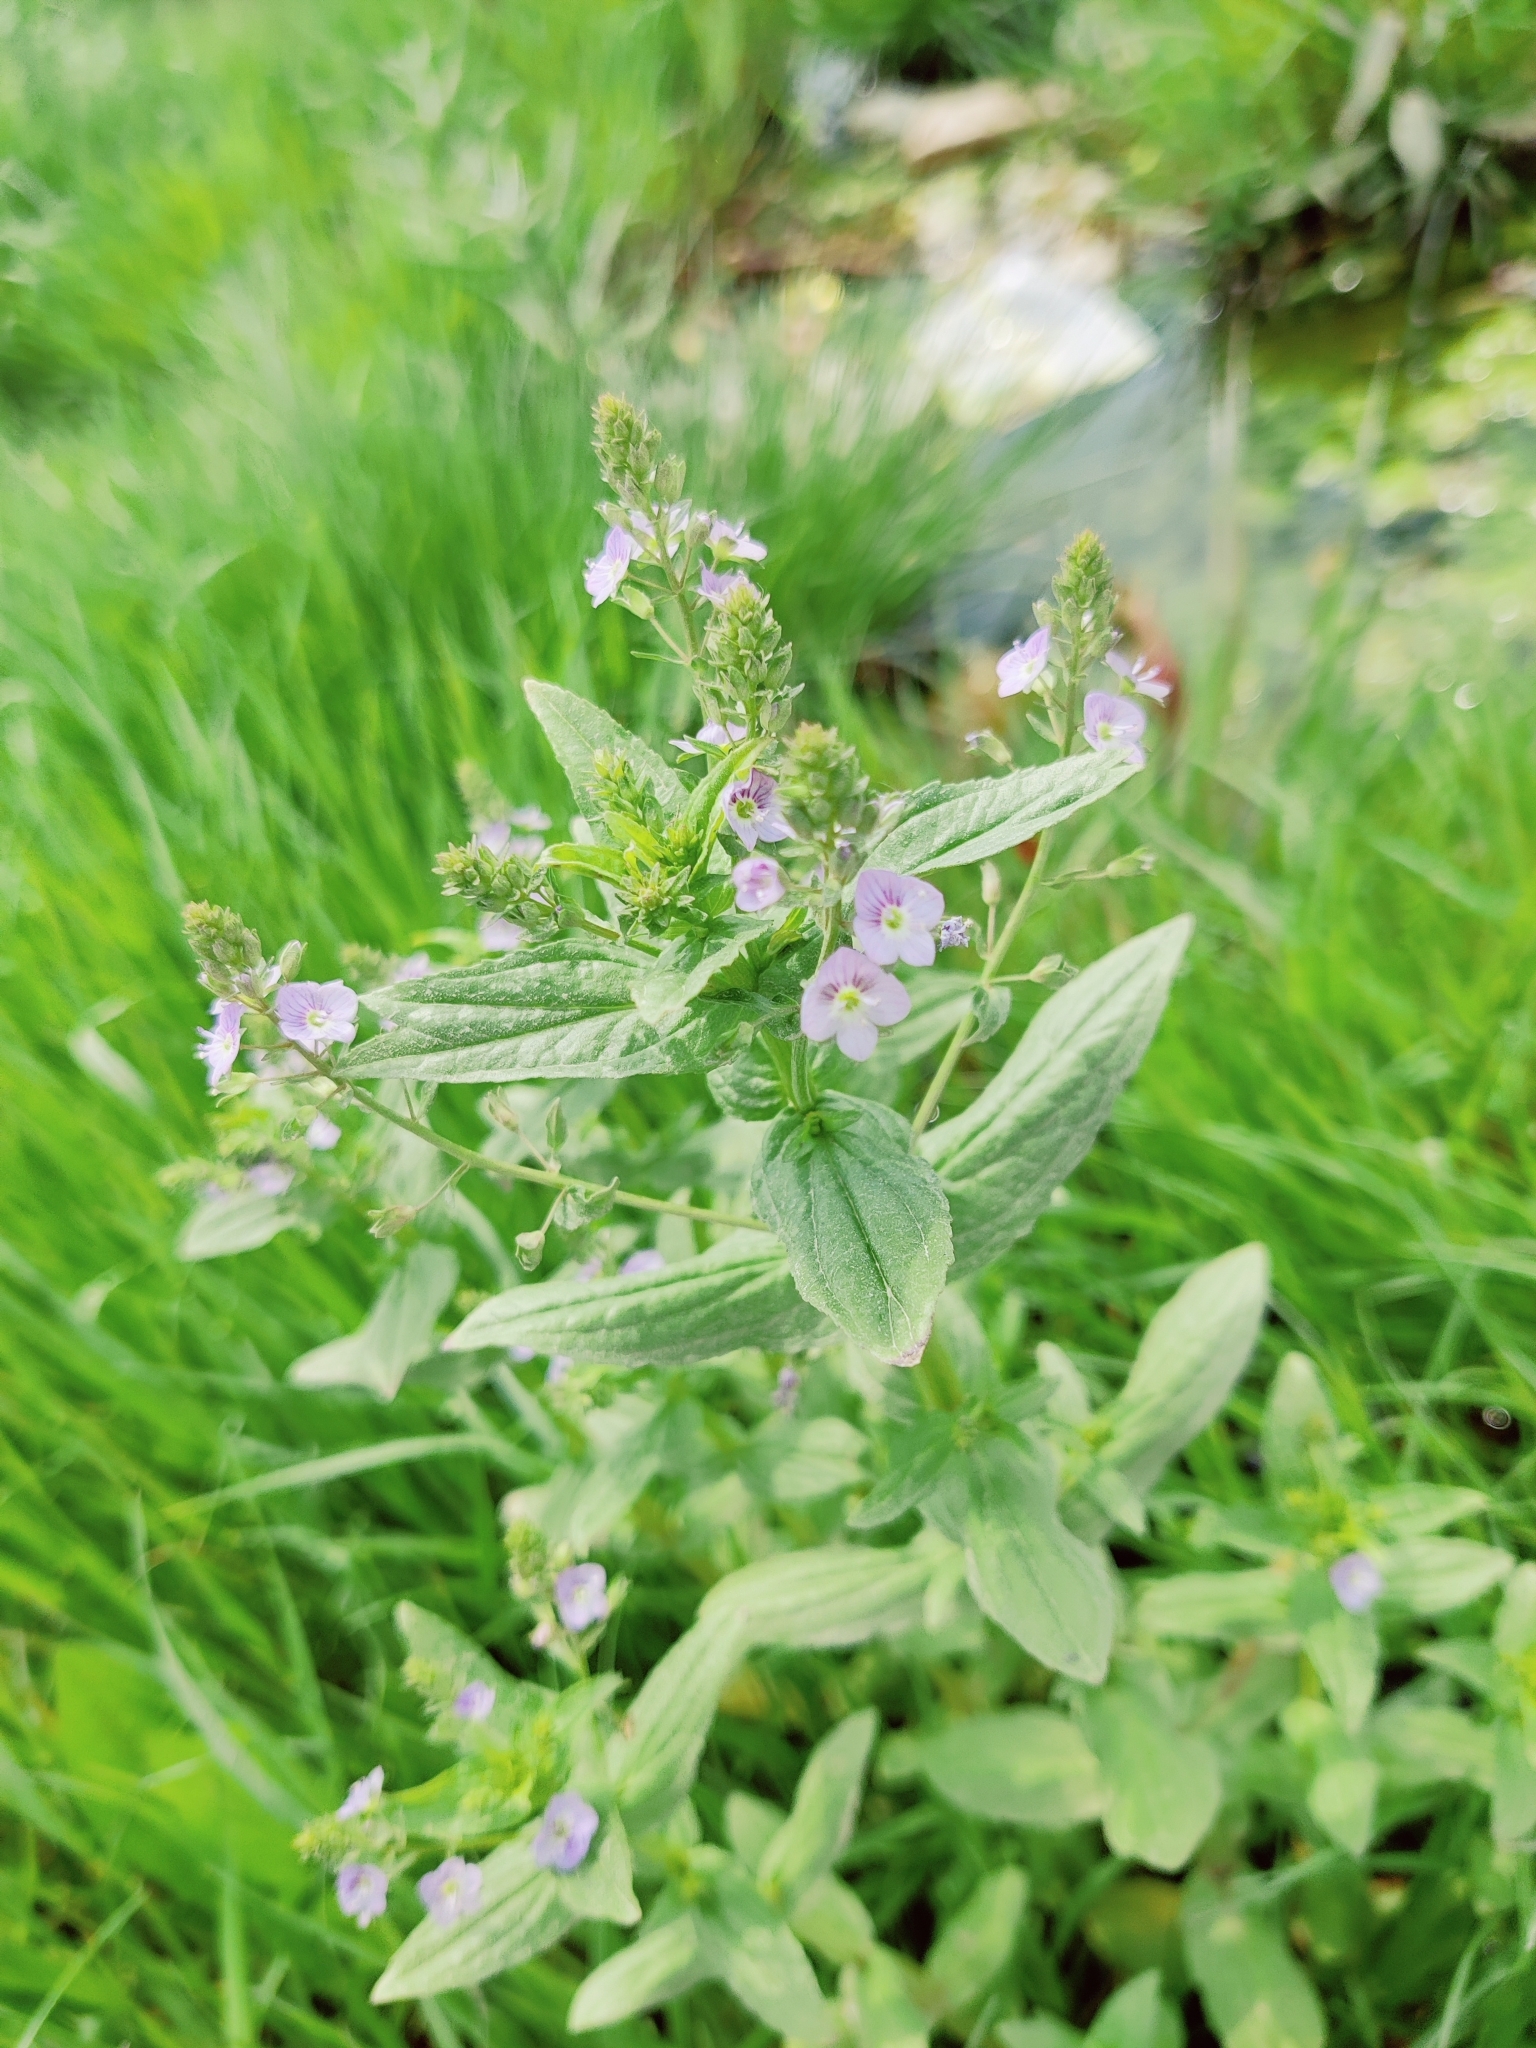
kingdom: Plantae
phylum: Tracheophyta
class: Magnoliopsida
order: Lamiales
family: Plantaginaceae
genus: Veronica
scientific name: Veronica anagallis-aquatica
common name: Water speedwell
